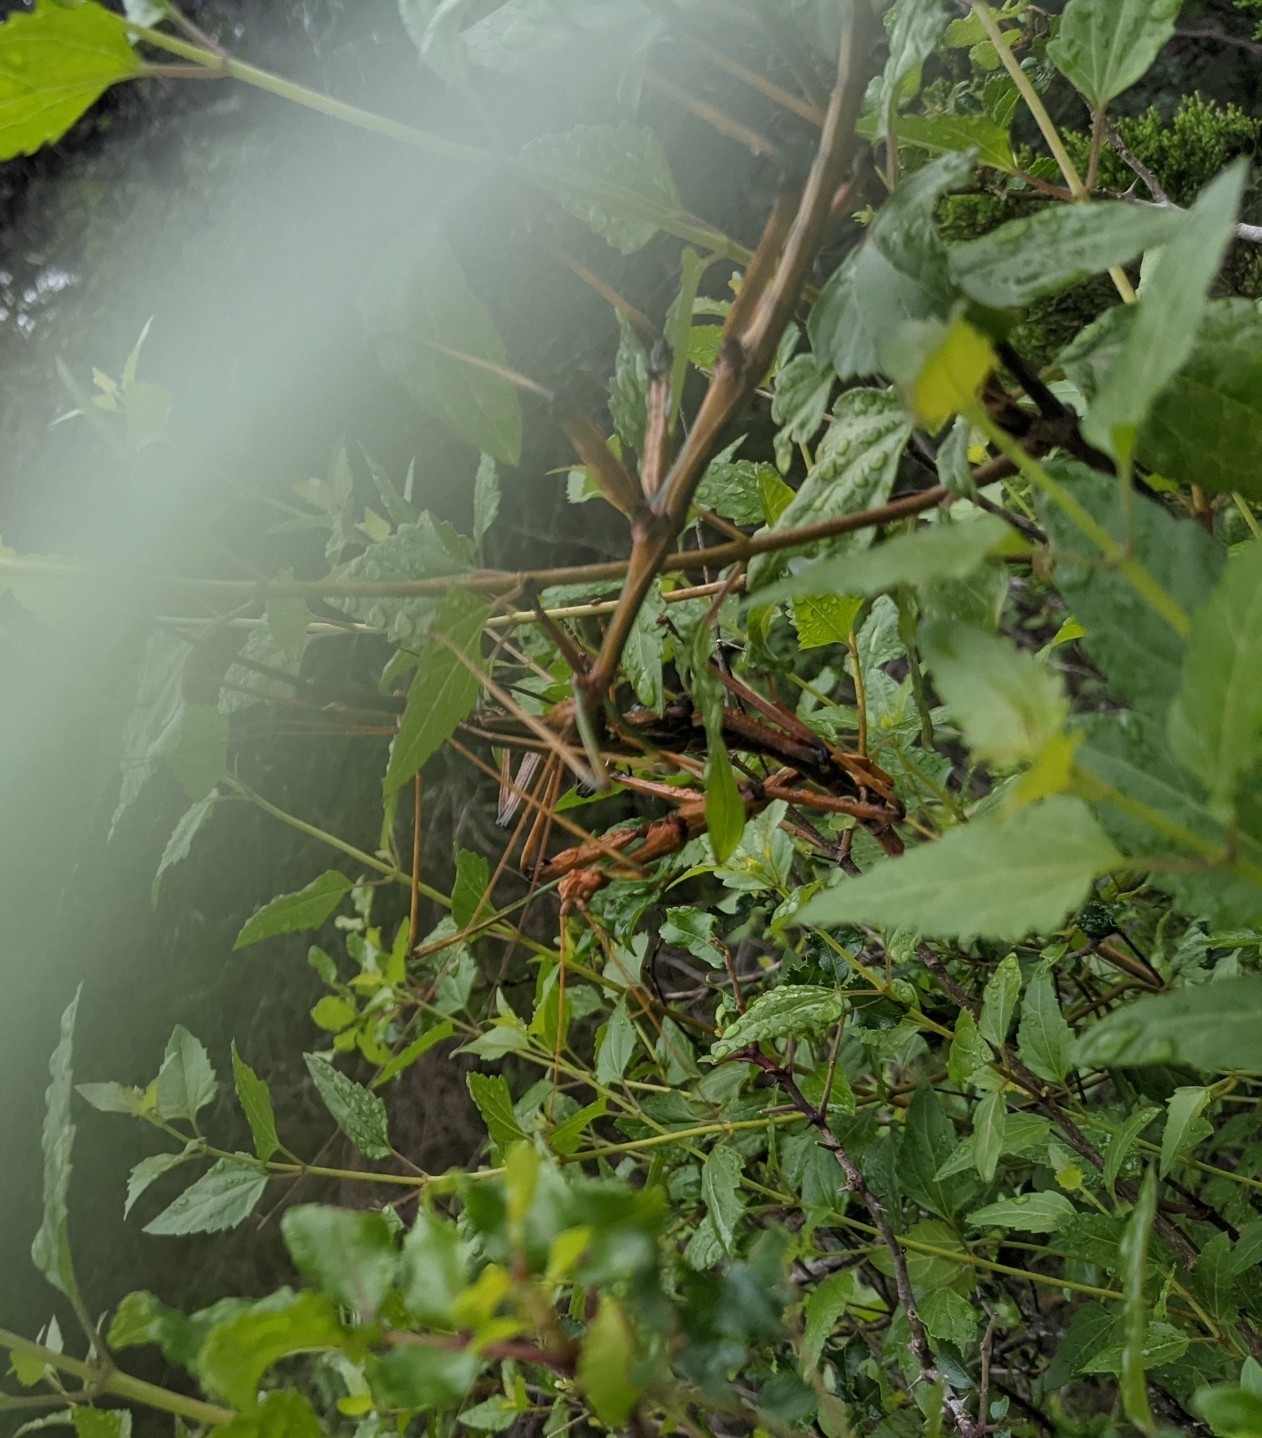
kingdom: Animalia
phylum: Arthropoda
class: Insecta
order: Phasmida
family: Diapheromeridae
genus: Megaphasma
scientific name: Megaphasma denticrus
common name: Giant walkingstick
